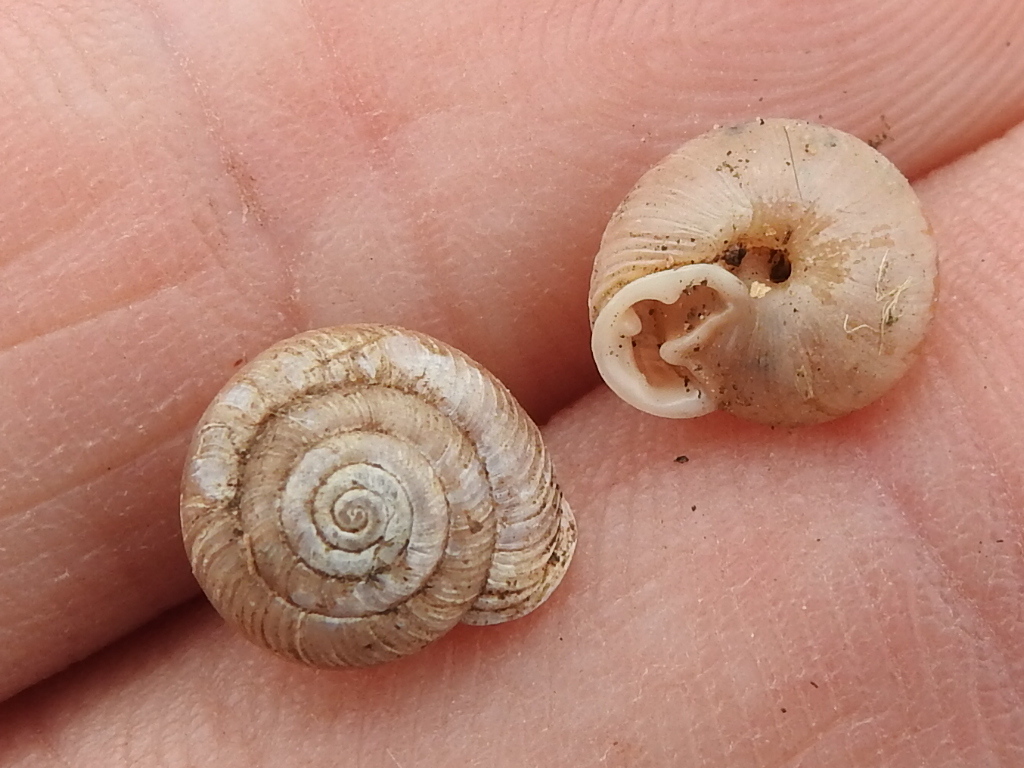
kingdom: Animalia
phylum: Mollusca
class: Gastropoda
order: Stylommatophora
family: Polygyridae
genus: Linisa
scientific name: Linisa texasiana
